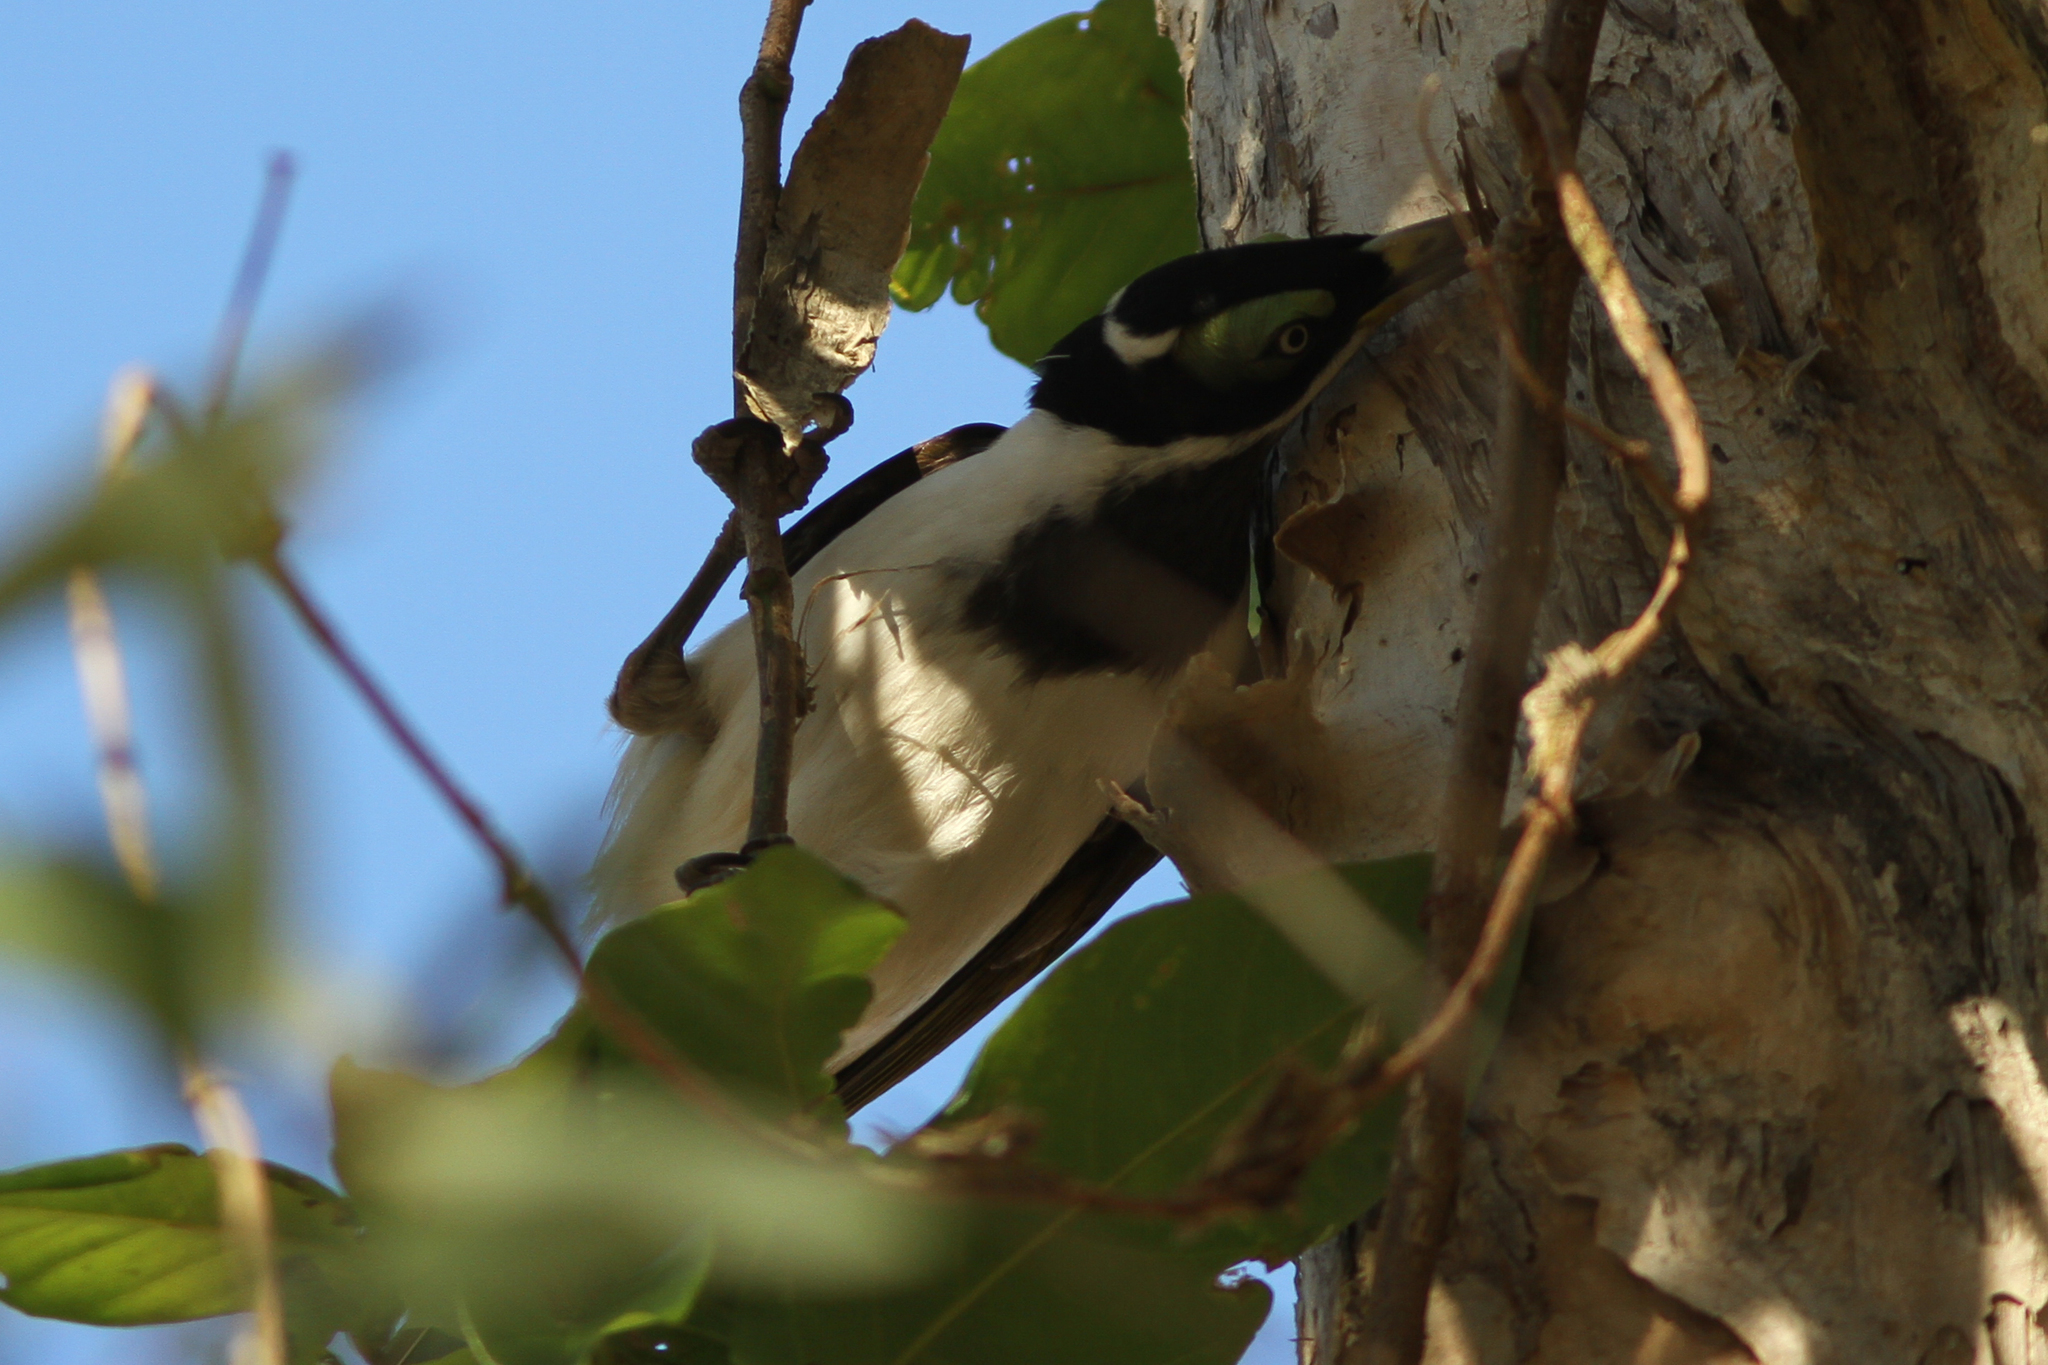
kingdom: Animalia
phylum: Chordata
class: Aves
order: Passeriformes
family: Meliphagidae
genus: Entomyzon
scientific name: Entomyzon cyanotis
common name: Blue-faced honeyeater
